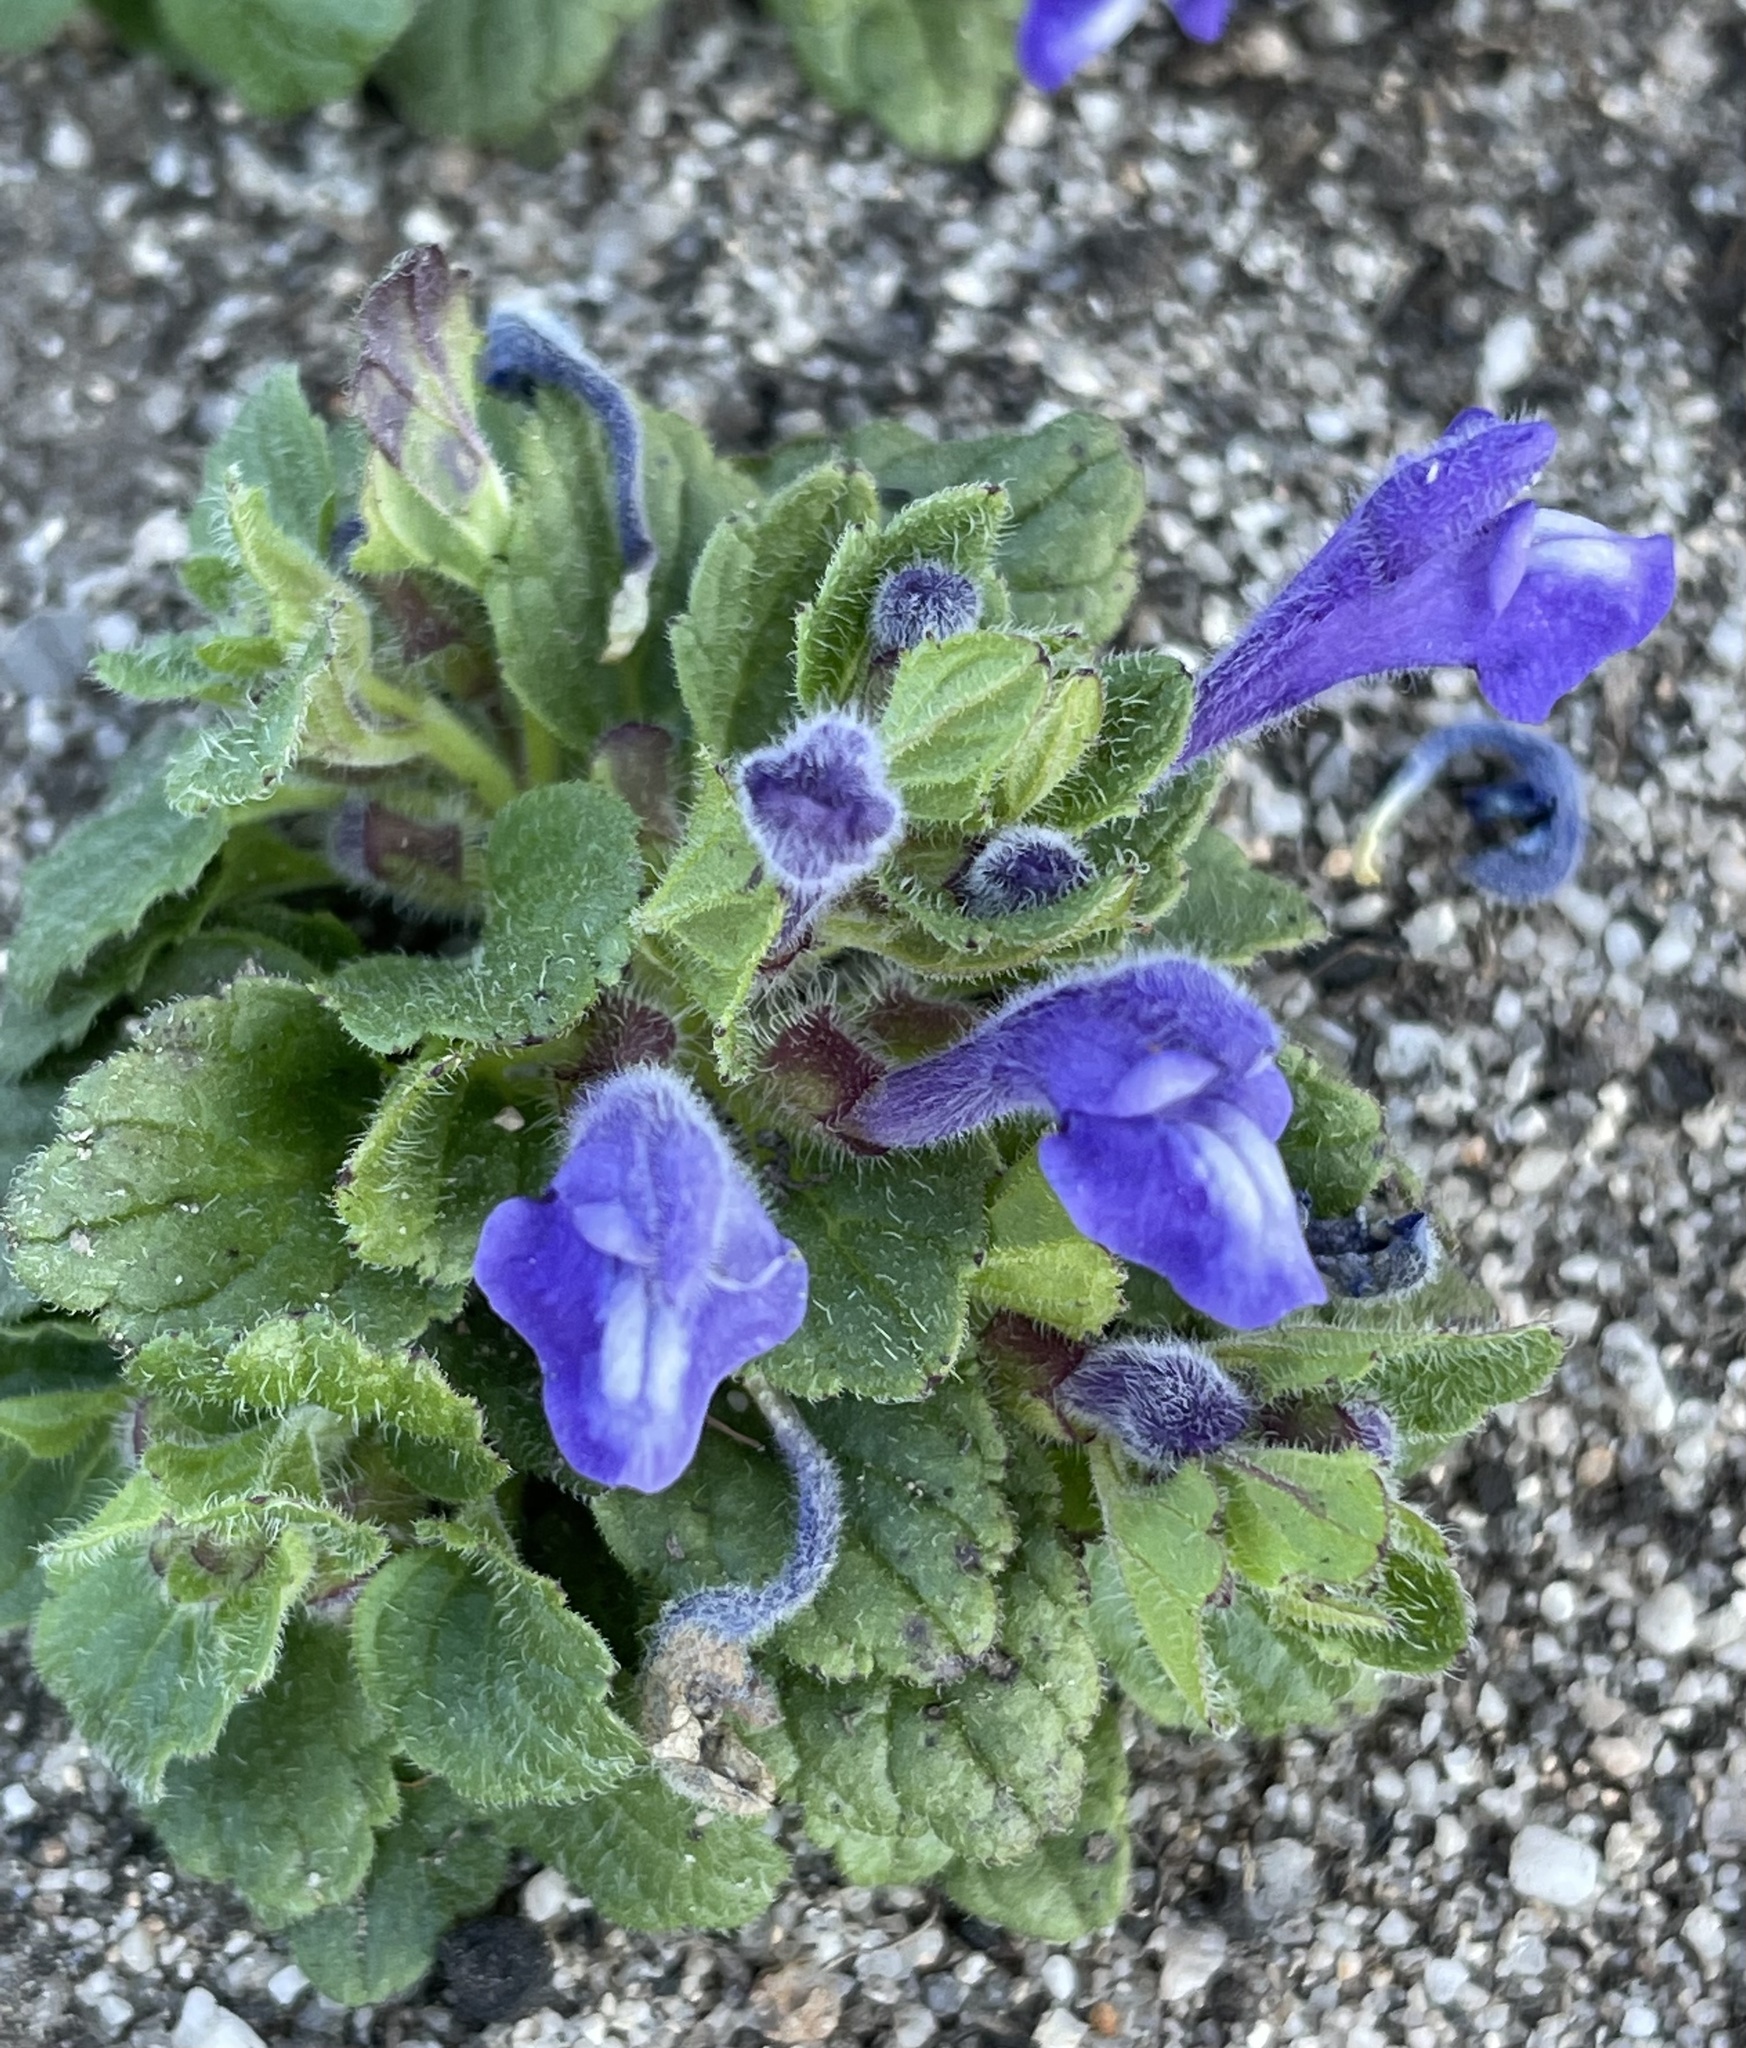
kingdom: Plantae
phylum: Tracheophyta
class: Magnoliopsida
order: Lamiales
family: Lamiaceae
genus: Scutellaria
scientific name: Scutellaria tuberosa
